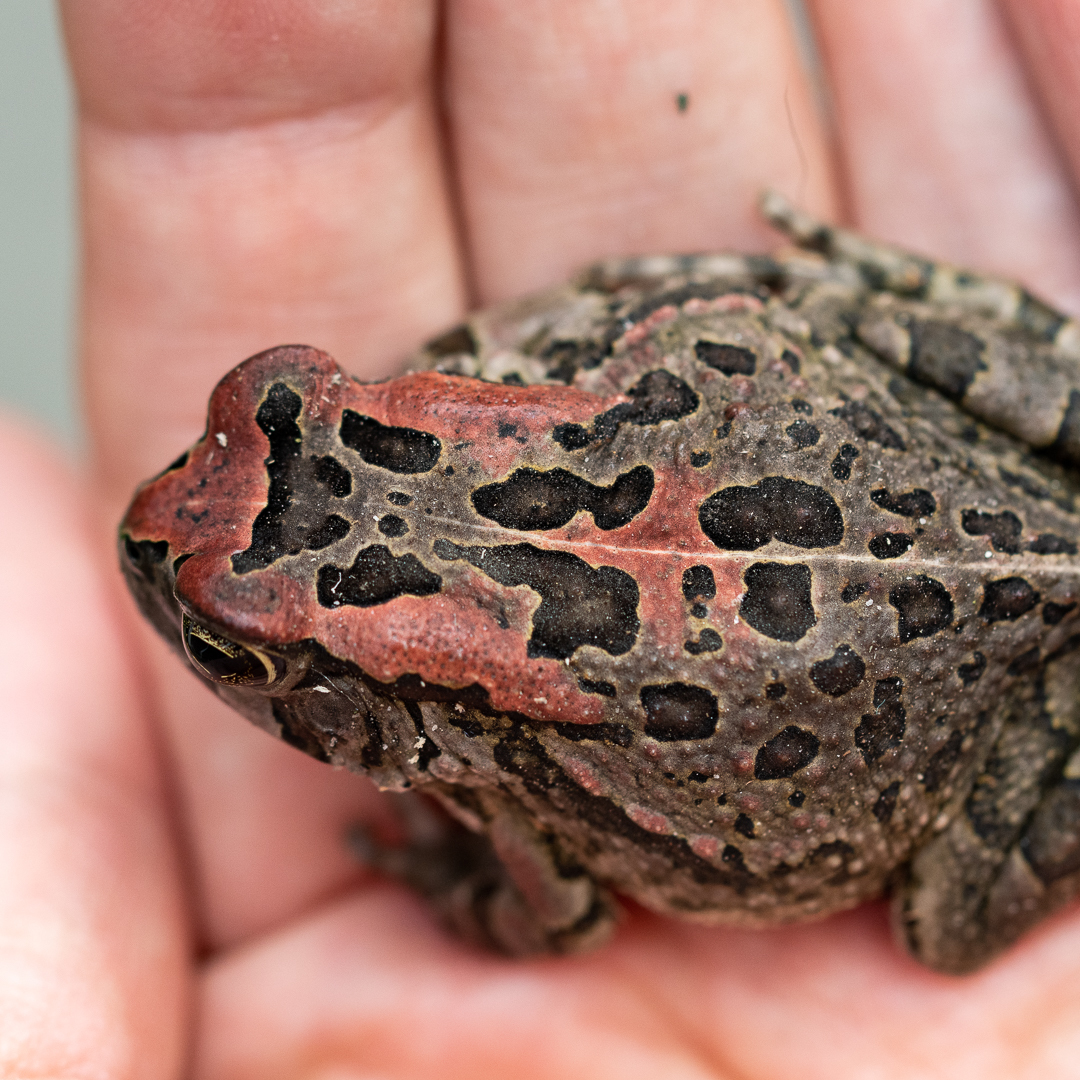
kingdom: Animalia
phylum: Chordata
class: Amphibia
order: Anura
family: Bufonidae
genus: Sclerophrys
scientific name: Sclerophrys capensis
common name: Ranger’s toad
